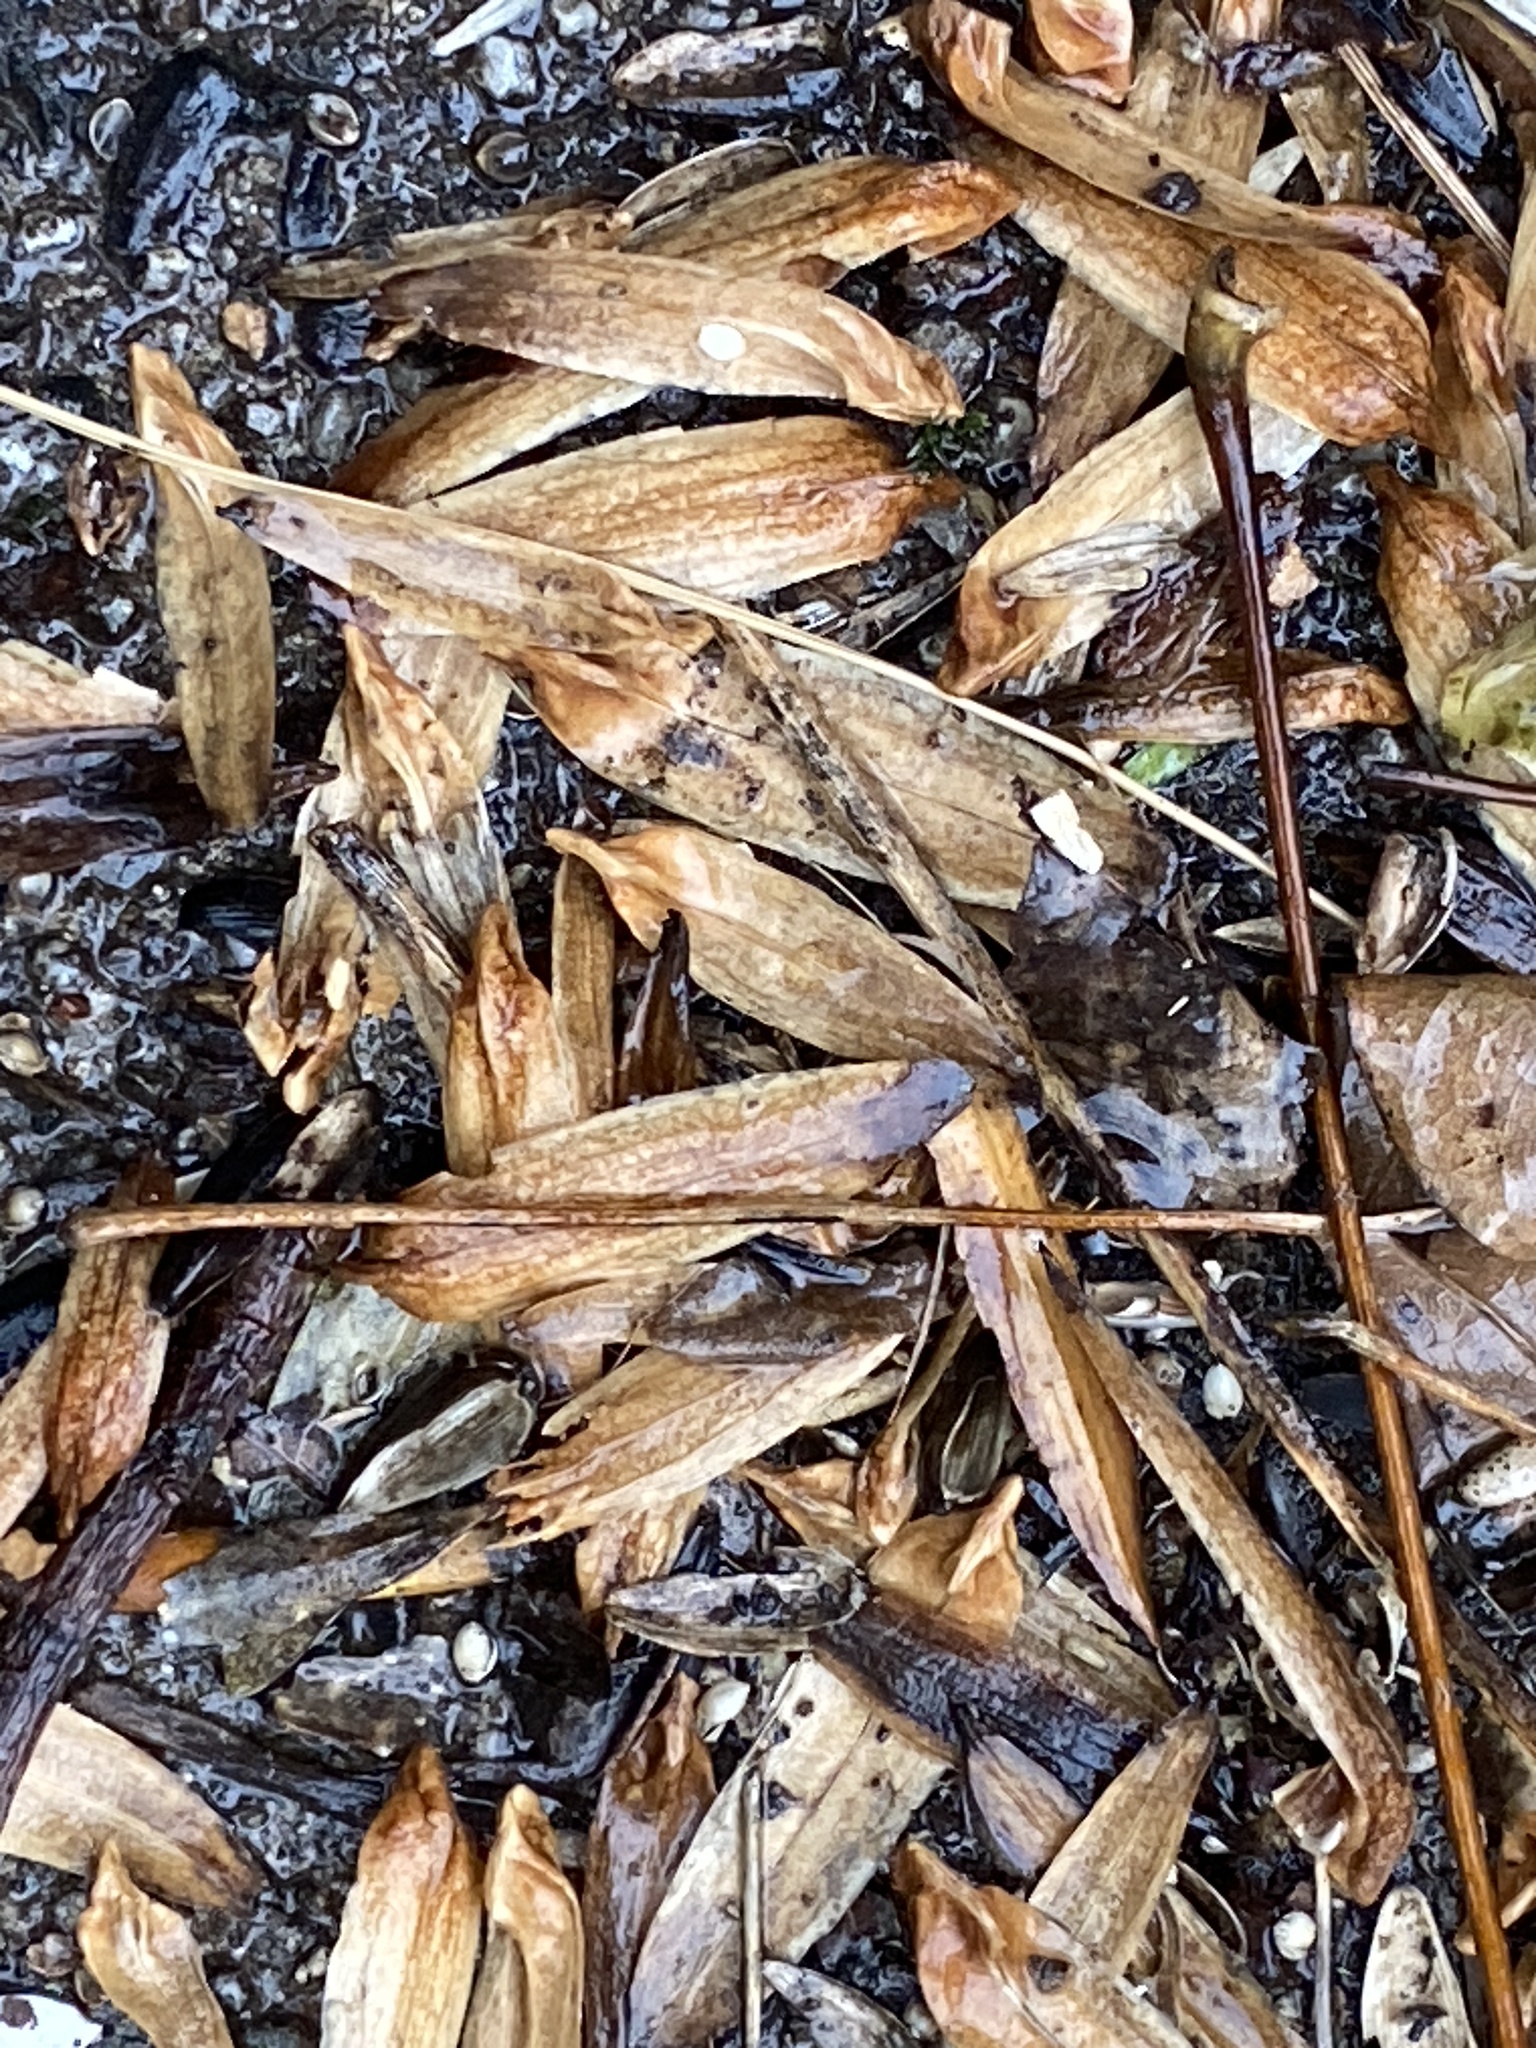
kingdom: Plantae
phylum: Tracheophyta
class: Magnoliopsida
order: Magnoliales
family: Magnoliaceae
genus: Liriodendron
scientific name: Liriodendron tulipifera
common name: Tulip tree
